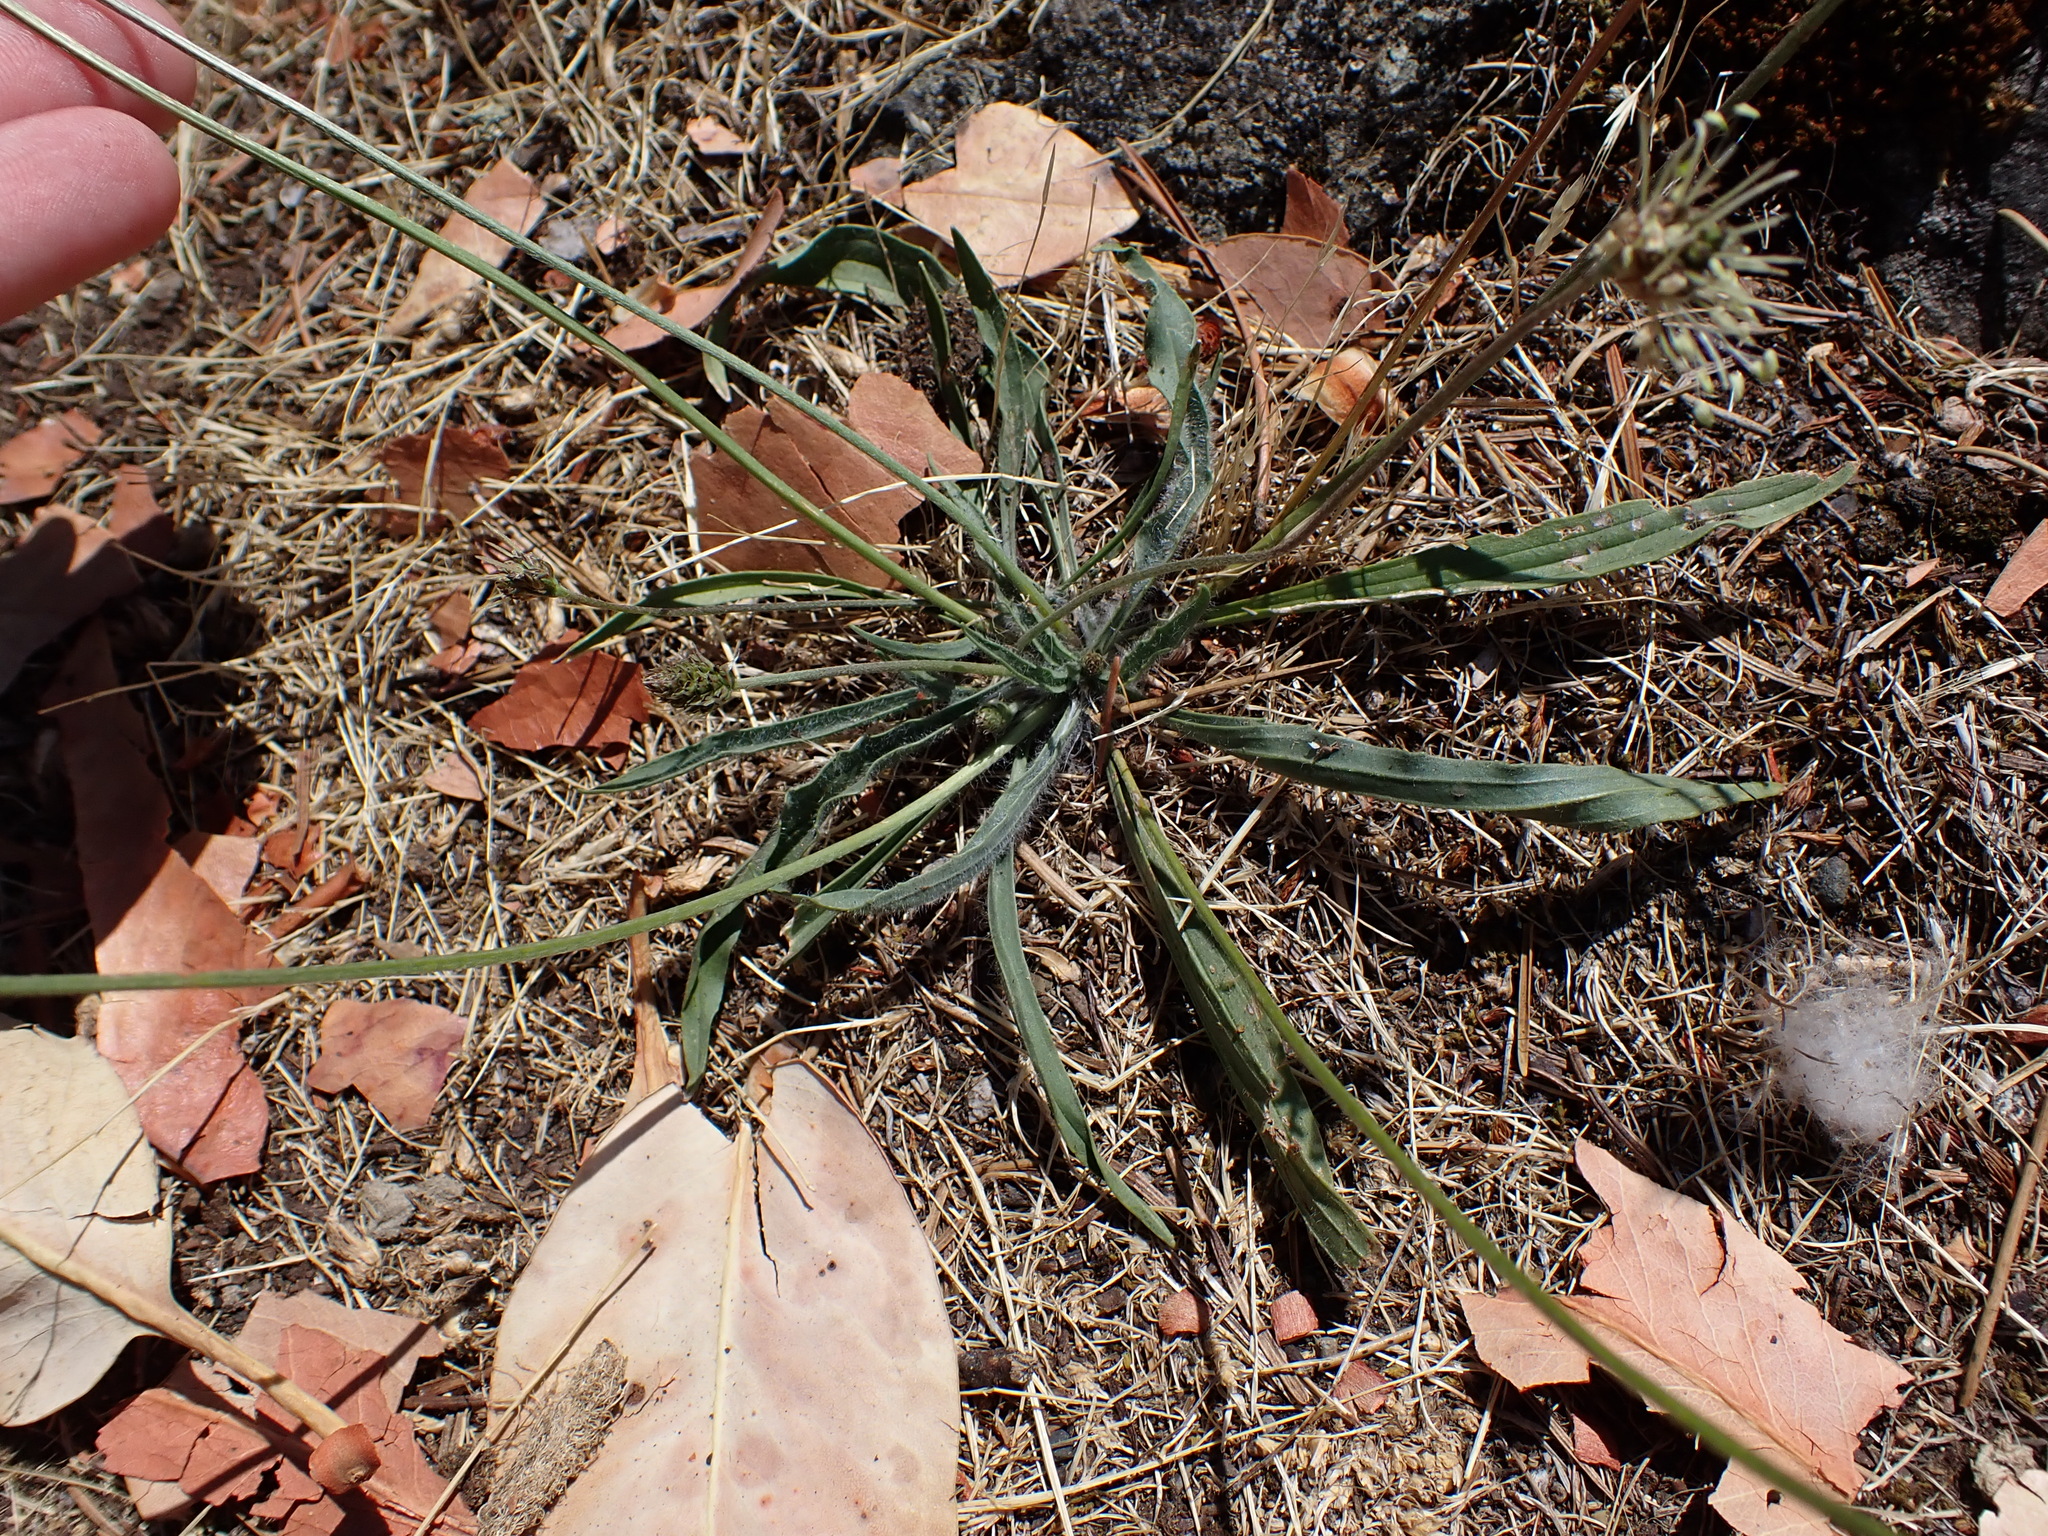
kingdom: Plantae
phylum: Tracheophyta
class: Magnoliopsida
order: Lamiales
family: Plantaginaceae
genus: Plantago
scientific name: Plantago lanceolata
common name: Ribwort plantain
